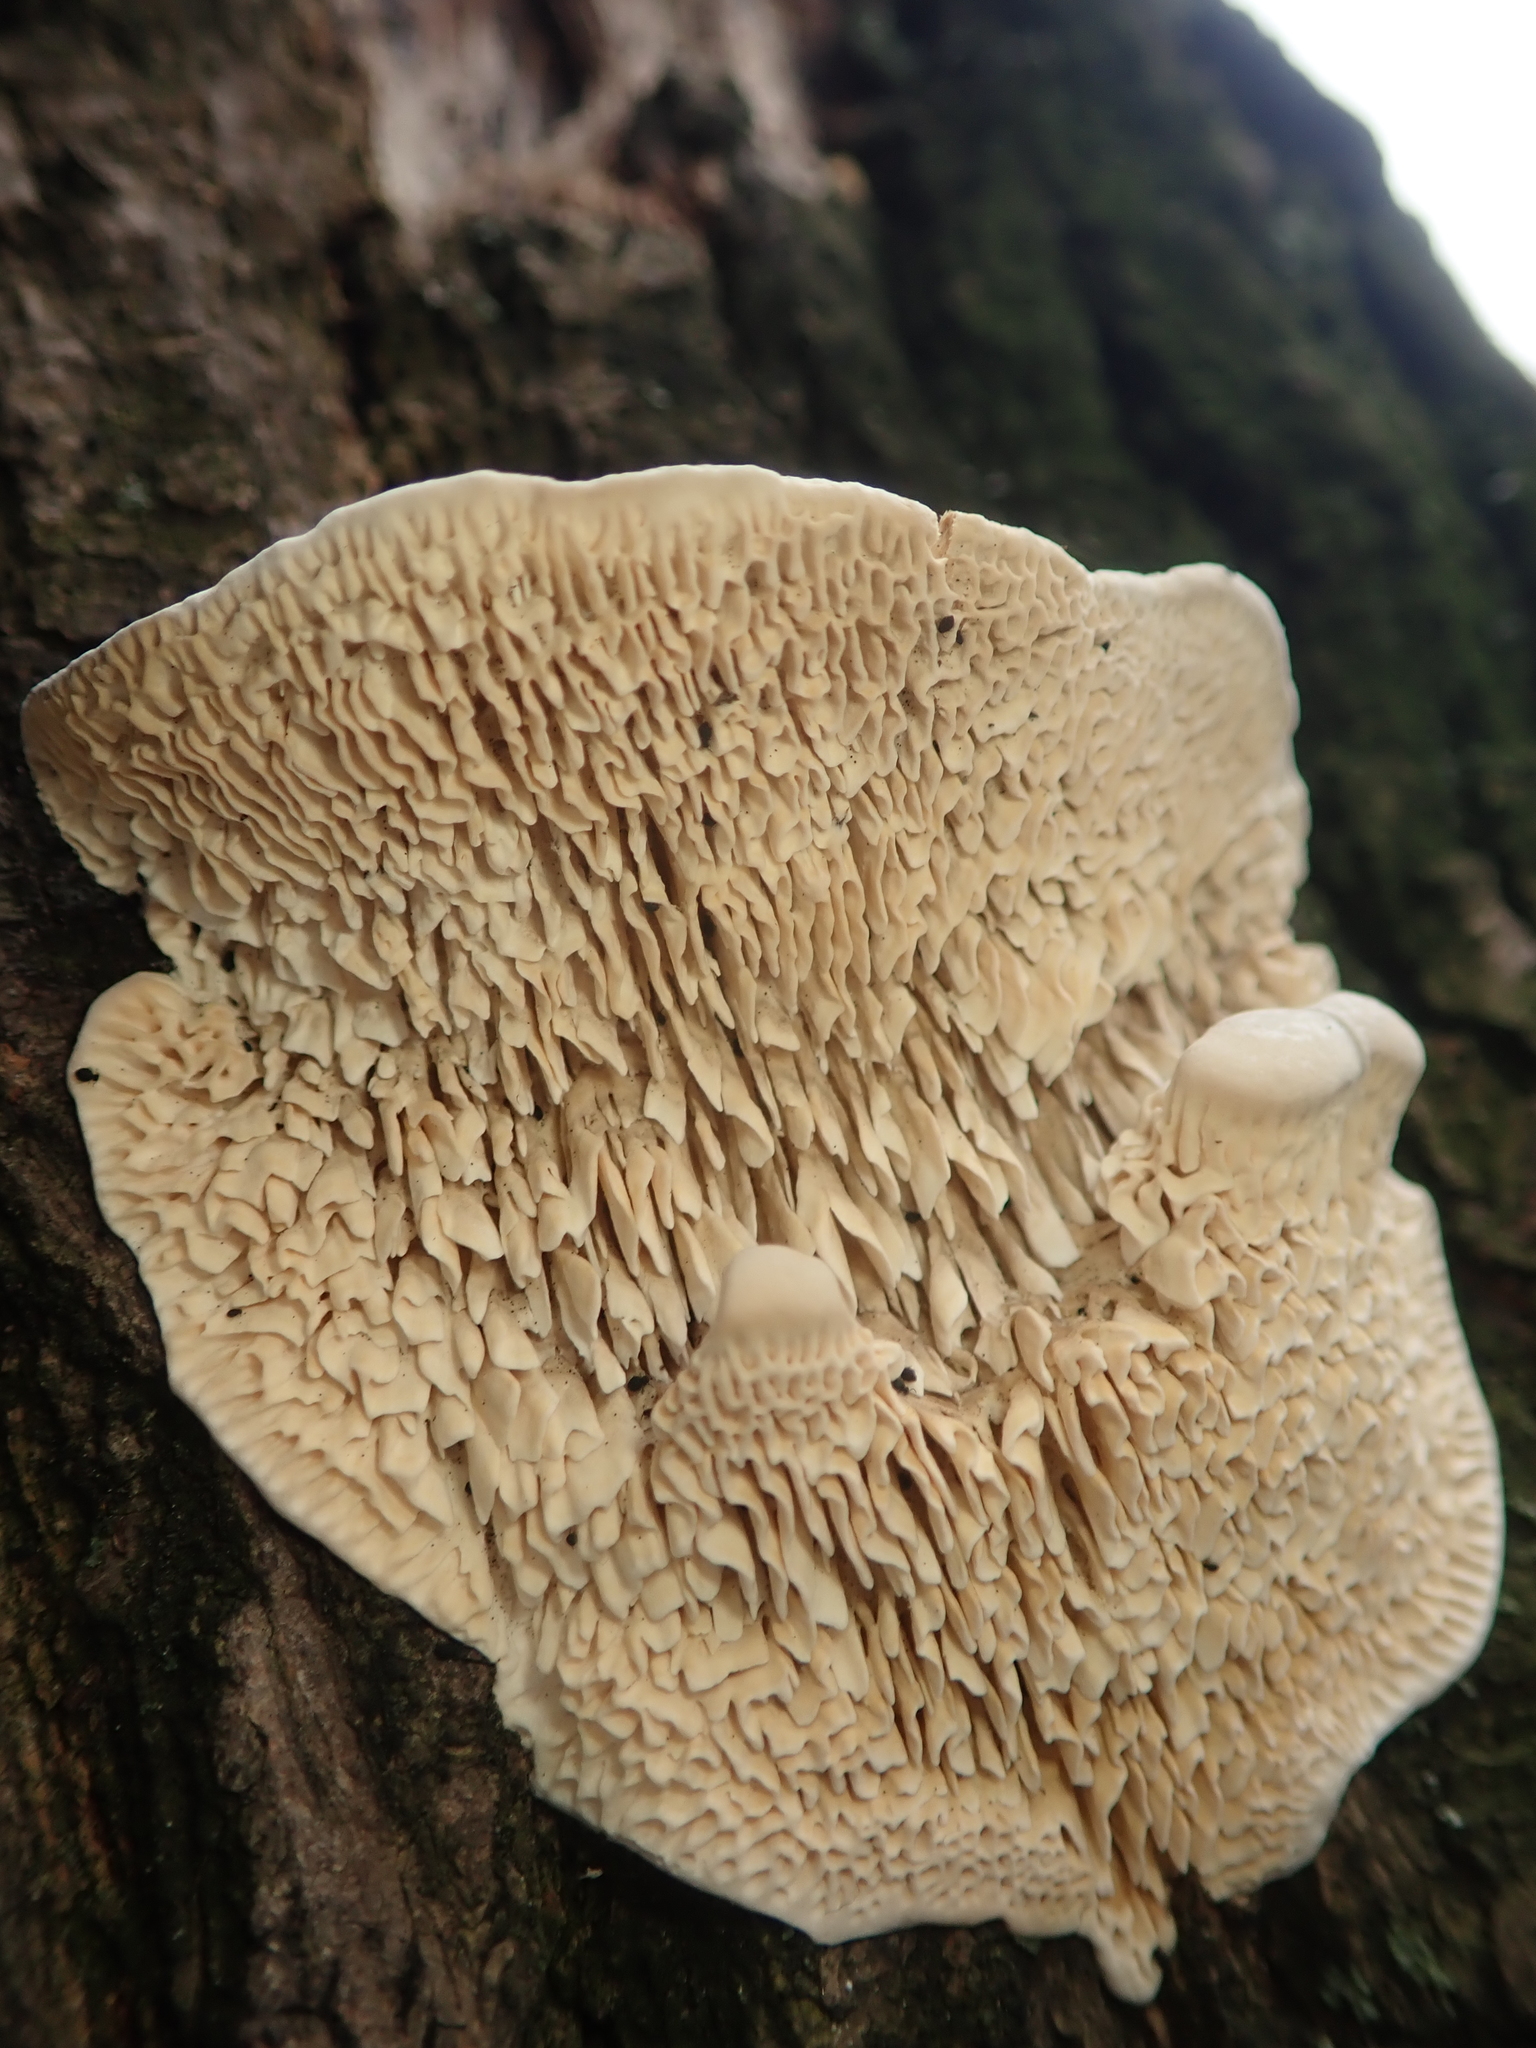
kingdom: Fungi
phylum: Basidiomycota
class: Agaricomycetes
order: Polyporales
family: Fomitopsidaceae
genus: Fomitopsis
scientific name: Fomitopsis
